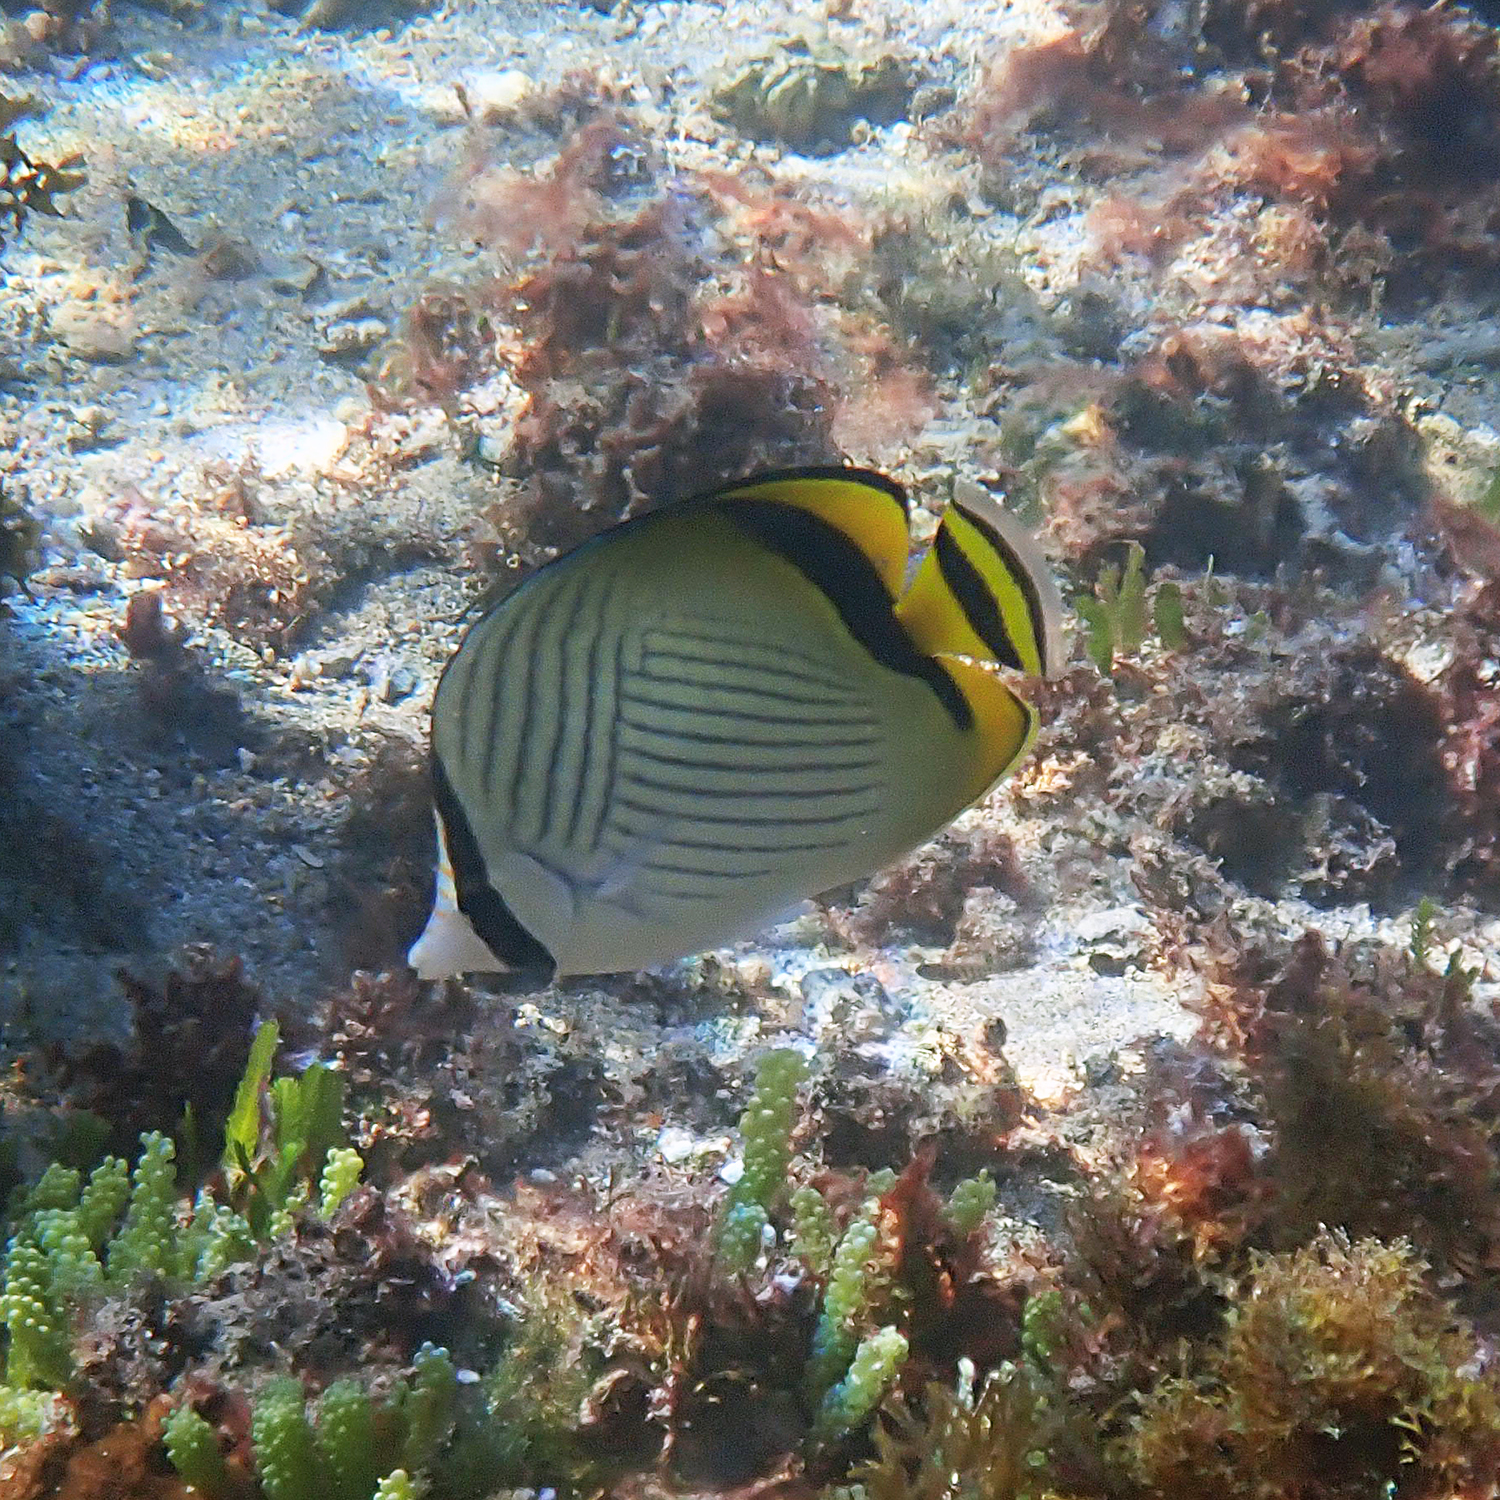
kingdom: Animalia
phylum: Chordata
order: Perciformes
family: Chaetodontidae
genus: Chaetodon
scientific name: Chaetodon vagabundus
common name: Vagabond butterflyfish
